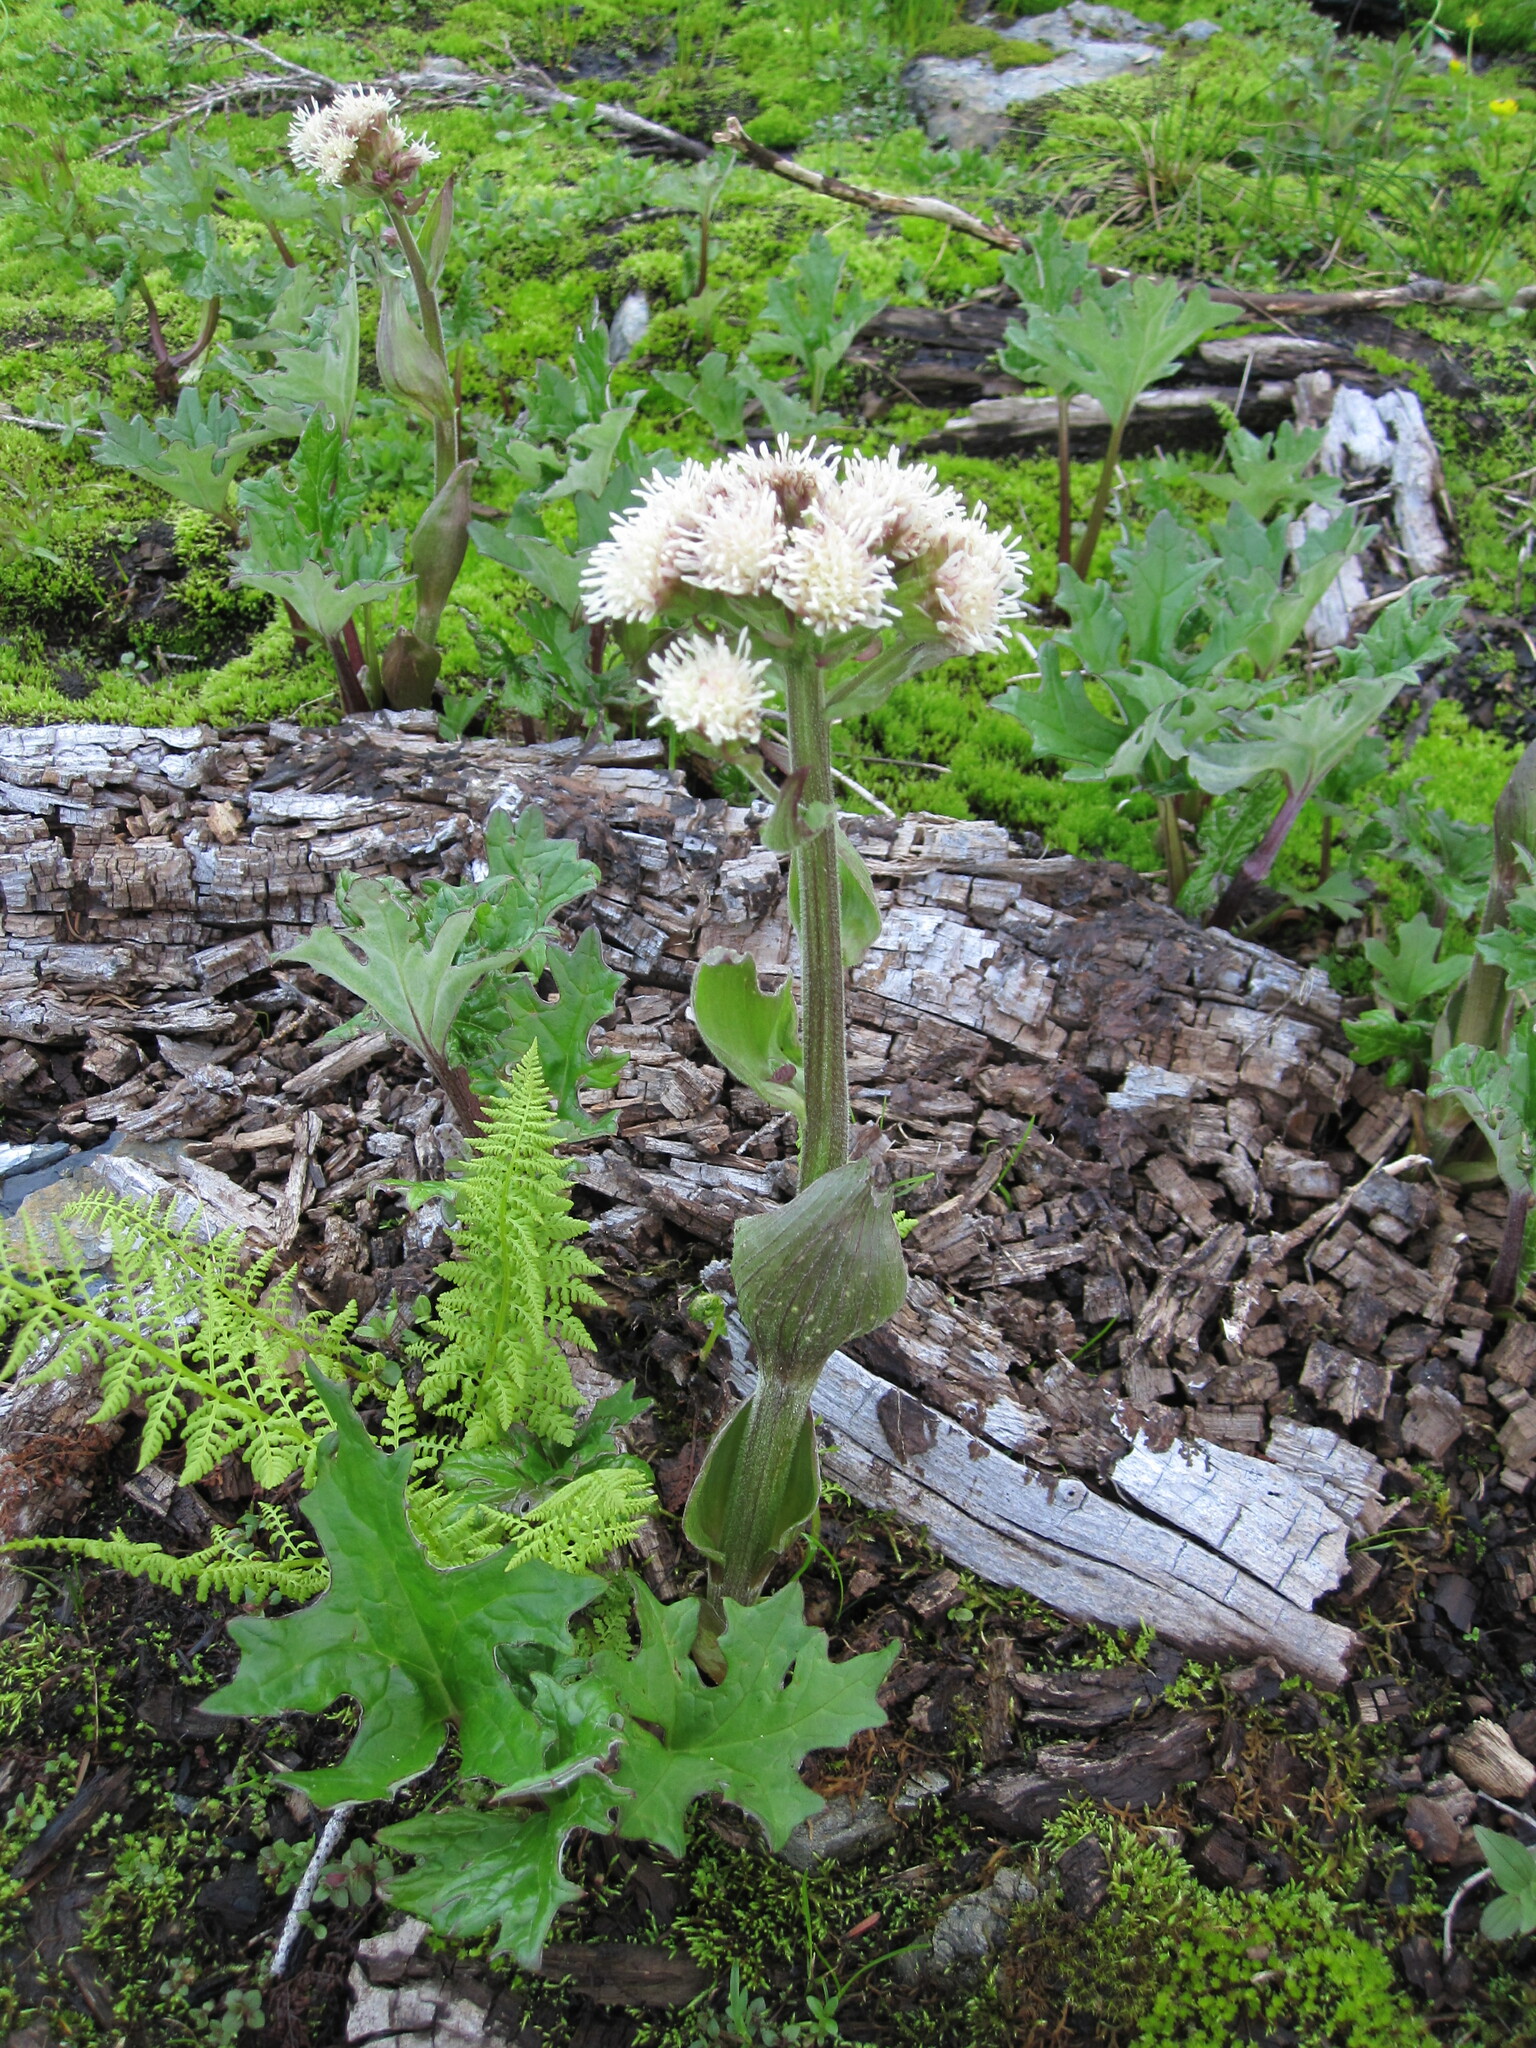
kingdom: Plantae
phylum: Tracheophyta
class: Magnoliopsida
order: Asterales
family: Asteraceae
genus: Petasites
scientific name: Petasites frigidus
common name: Arctic butterbur
